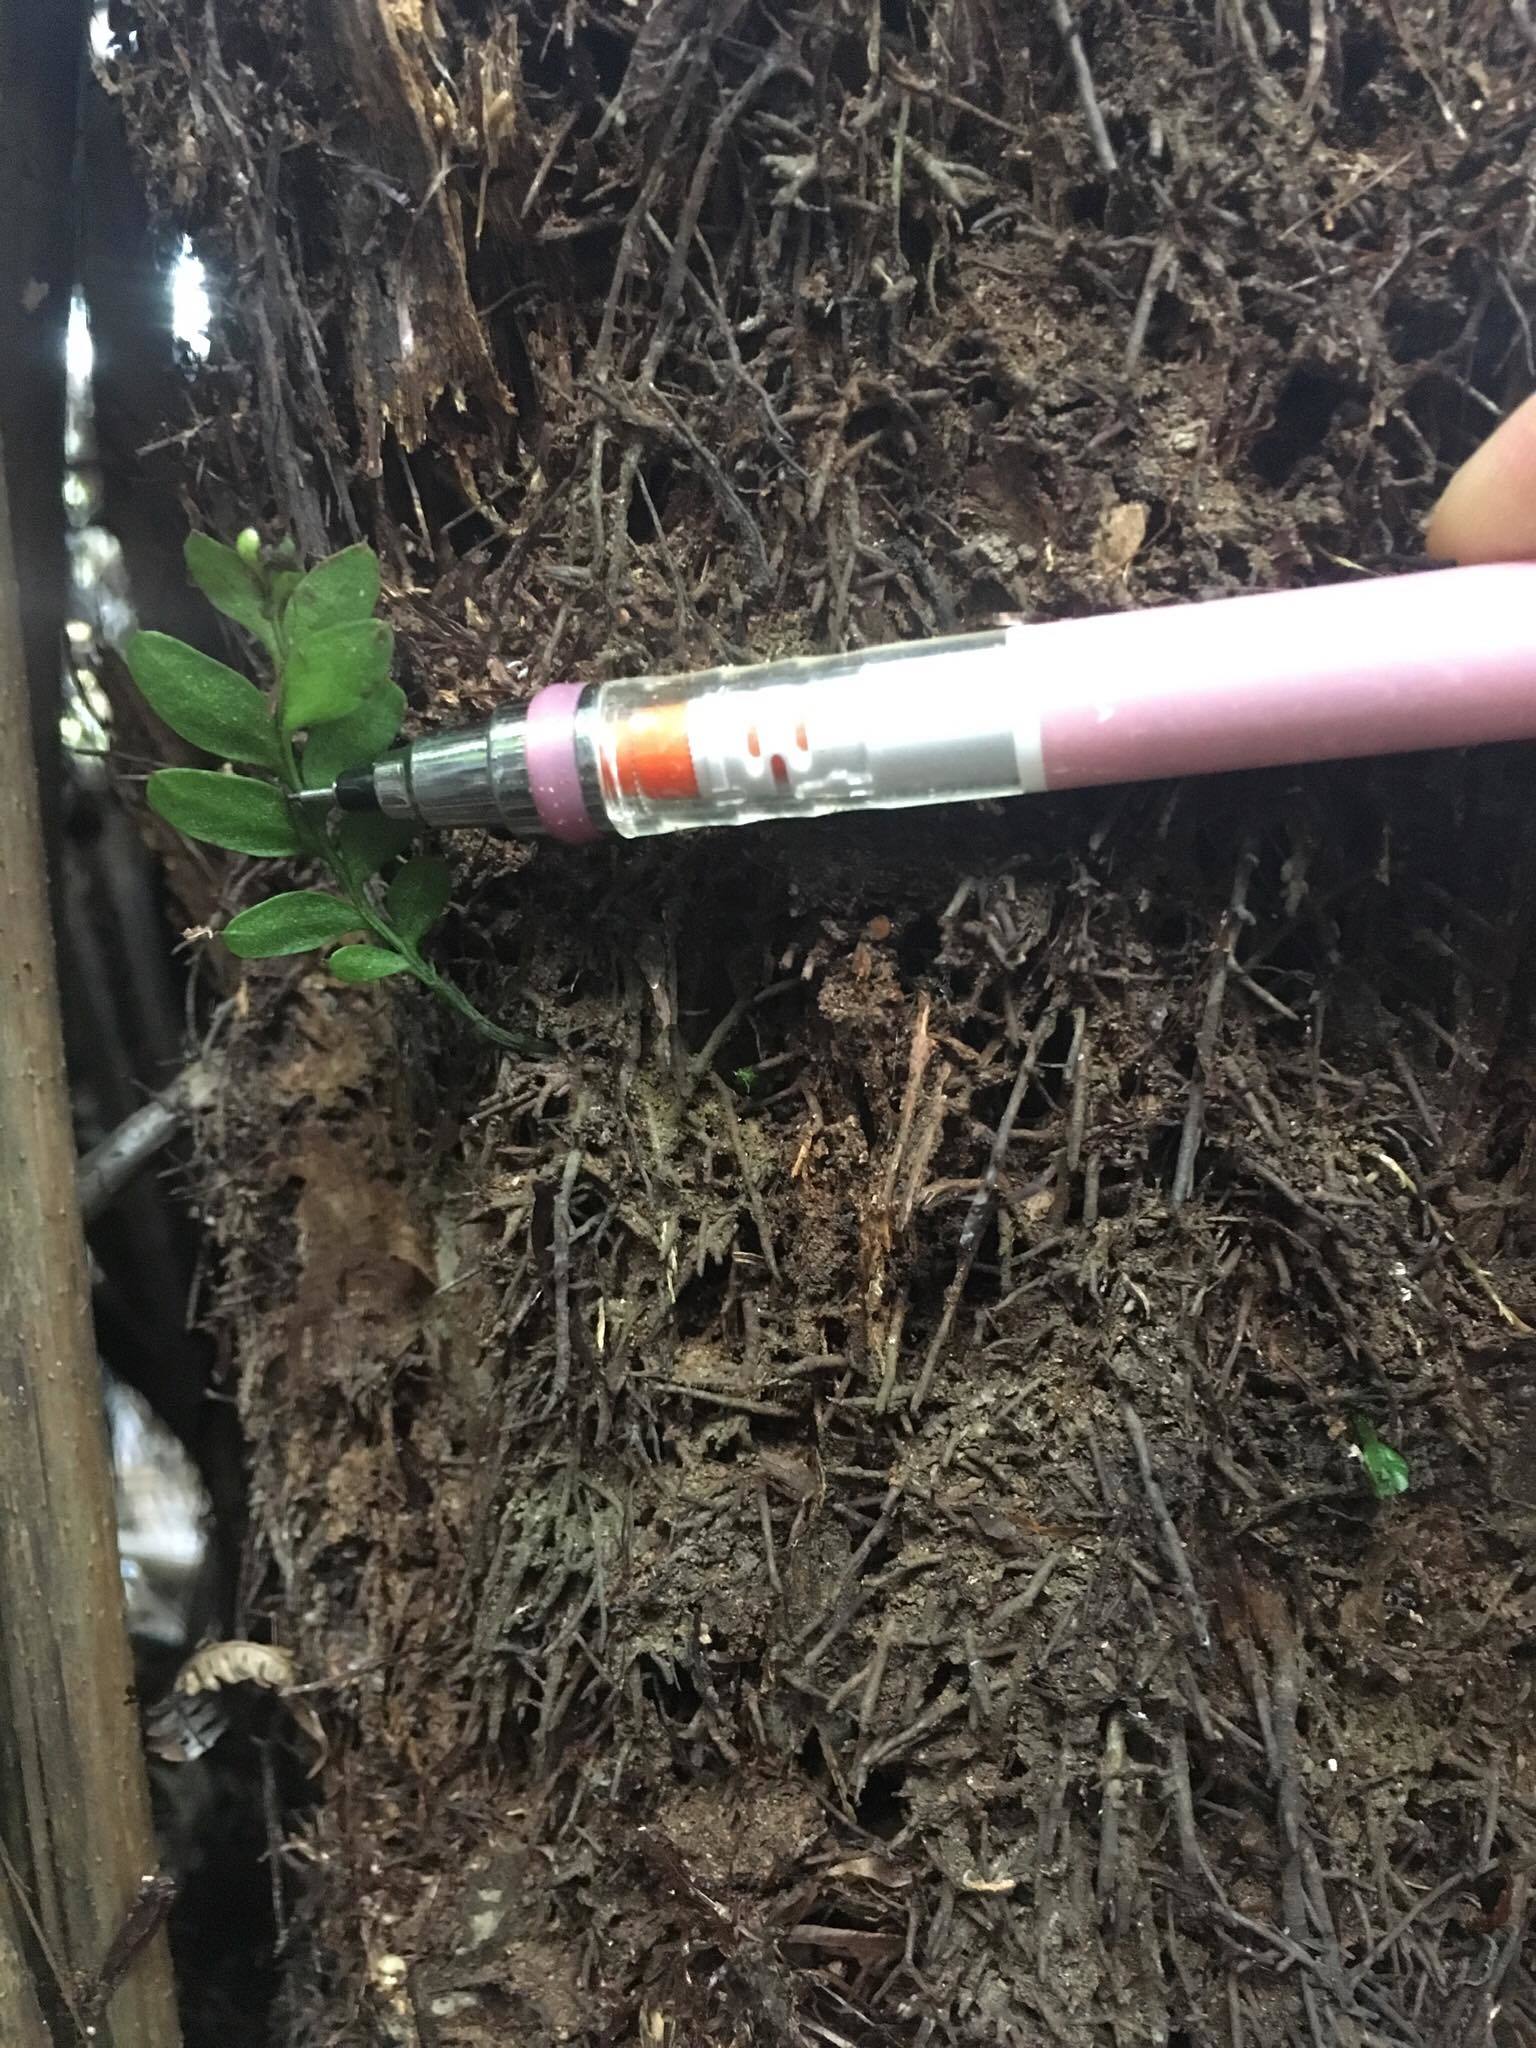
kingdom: Plantae
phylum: Tracheophyta
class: Polypodiopsida
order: Psilotales
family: Psilotaceae
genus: Tmesipteris
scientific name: Tmesipteris lanceolata
